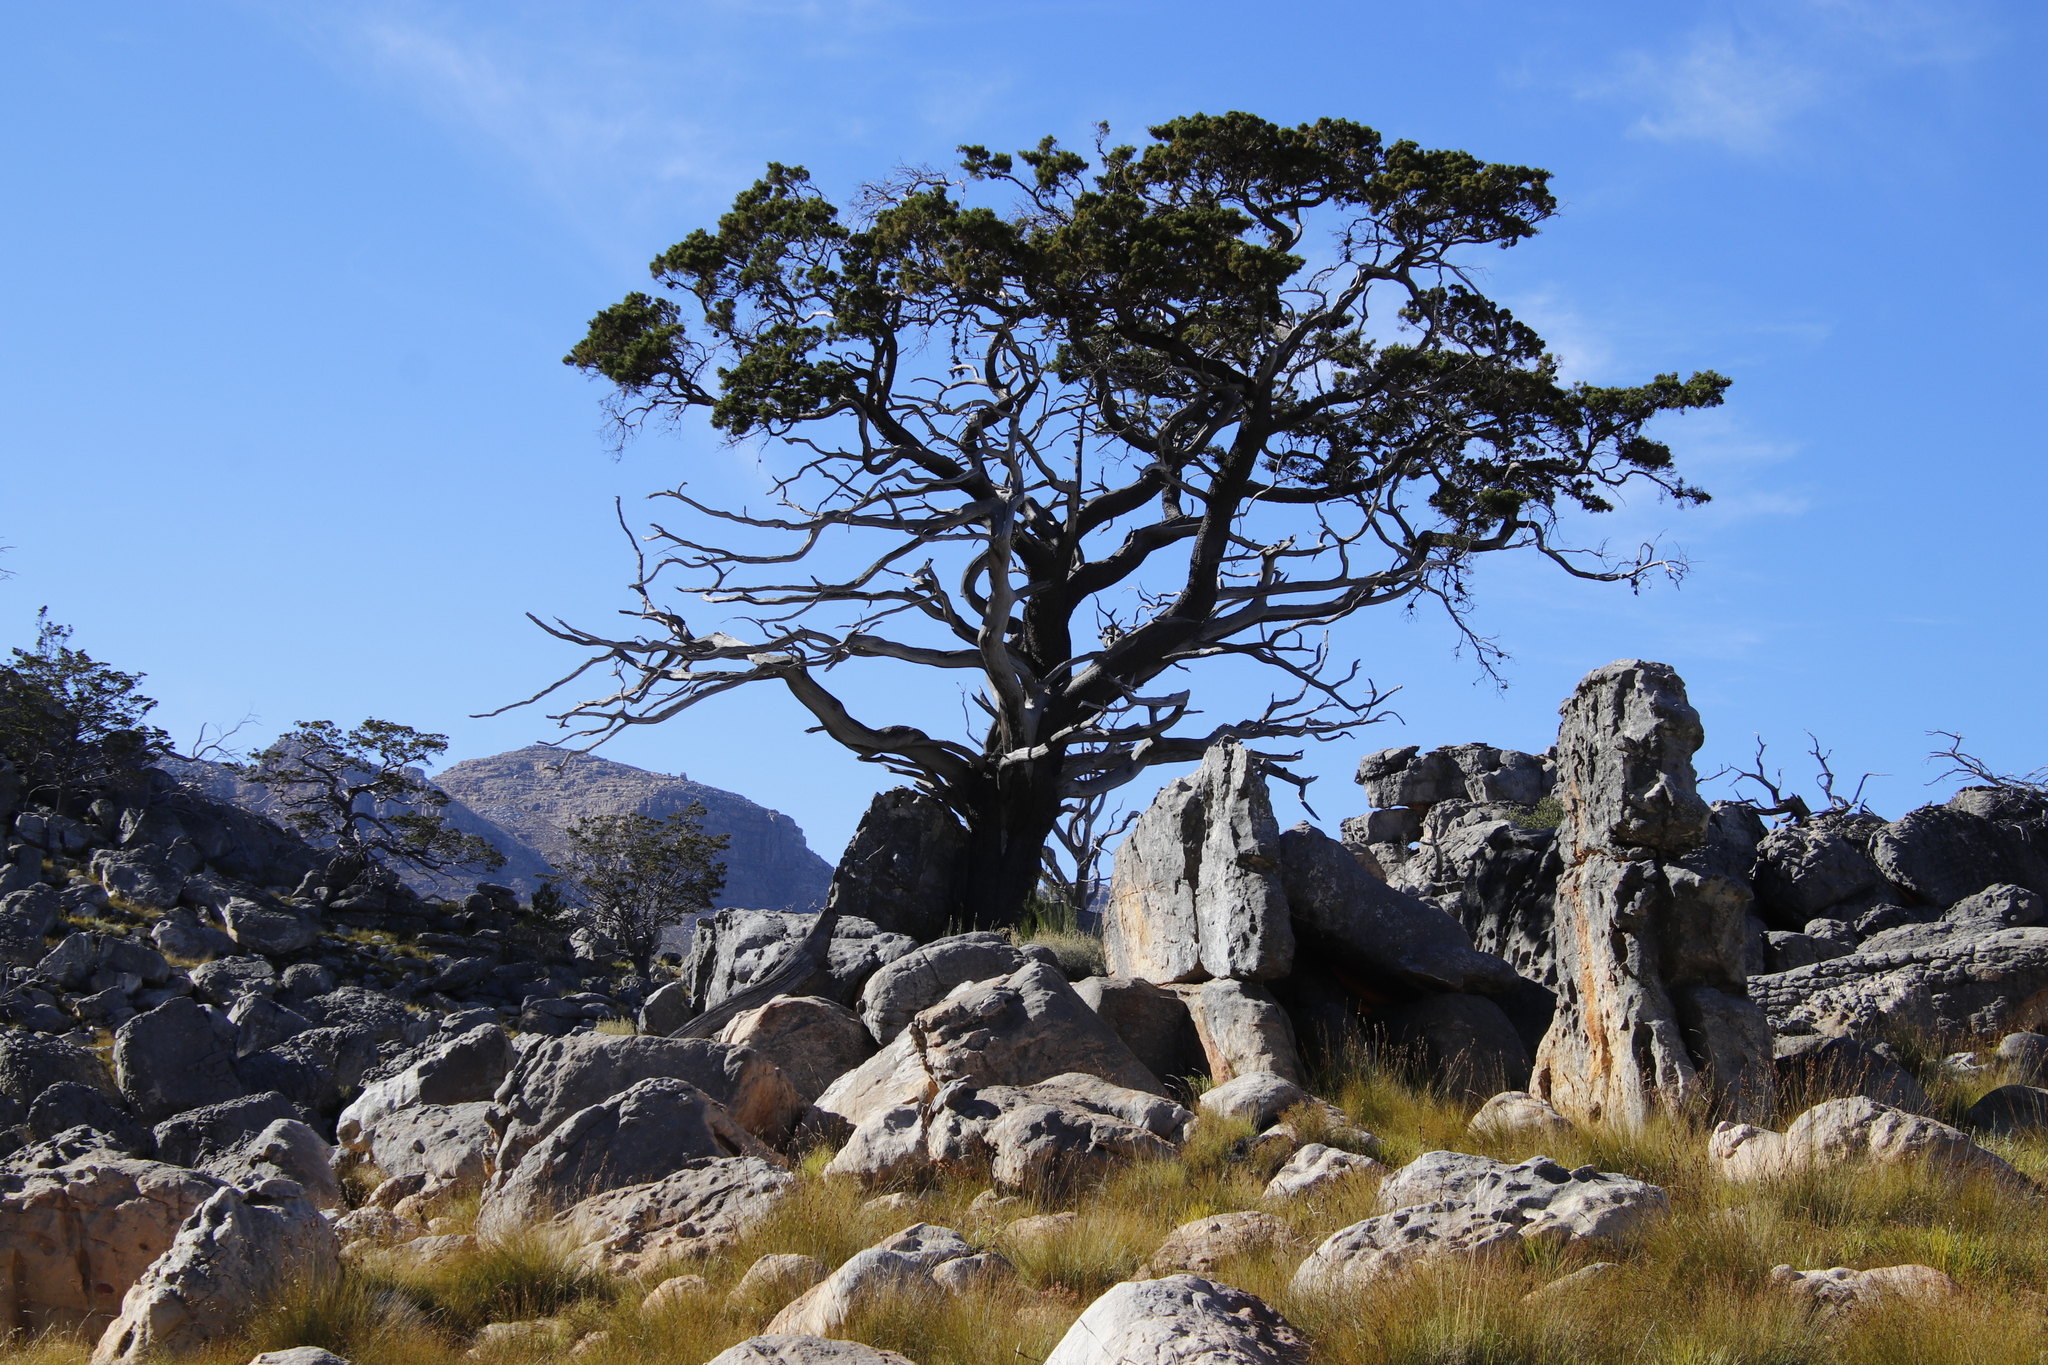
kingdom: Plantae
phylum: Tracheophyta
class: Pinopsida
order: Pinales
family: Cupressaceae
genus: Widdringtonia
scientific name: Widdringtonia nodiflora
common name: Cape cypress
